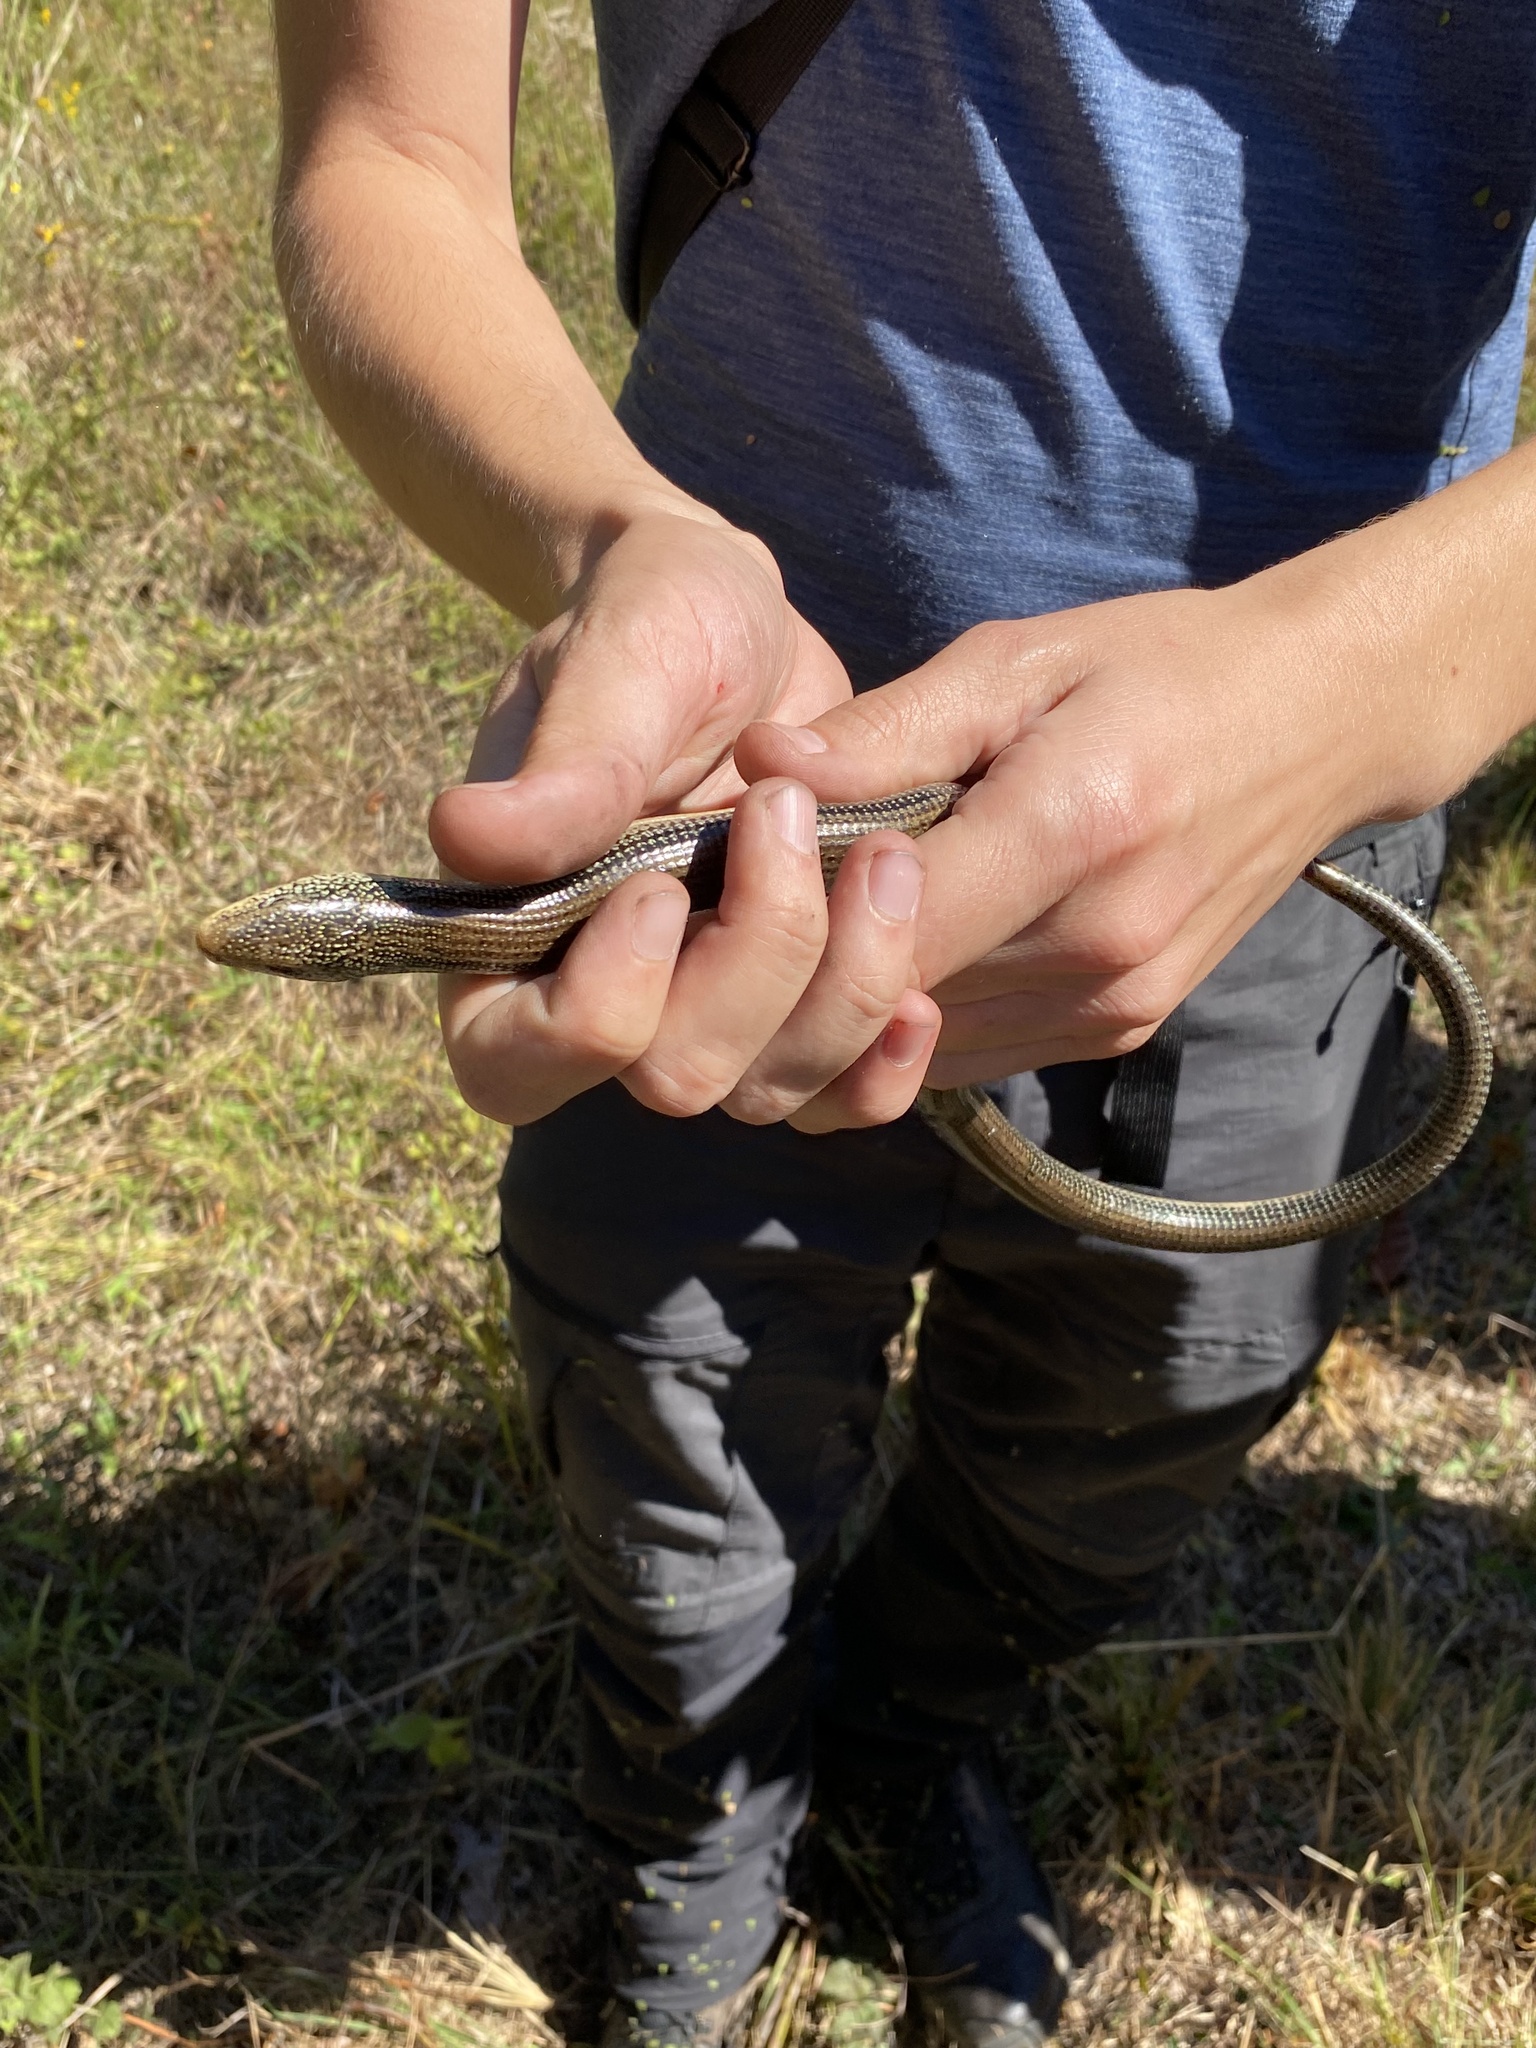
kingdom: Animalia
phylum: Chordata
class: Squamata
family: Anguidae
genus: Ophisaurus
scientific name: Ophisaurus ventralis
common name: Eastern glass lizard
